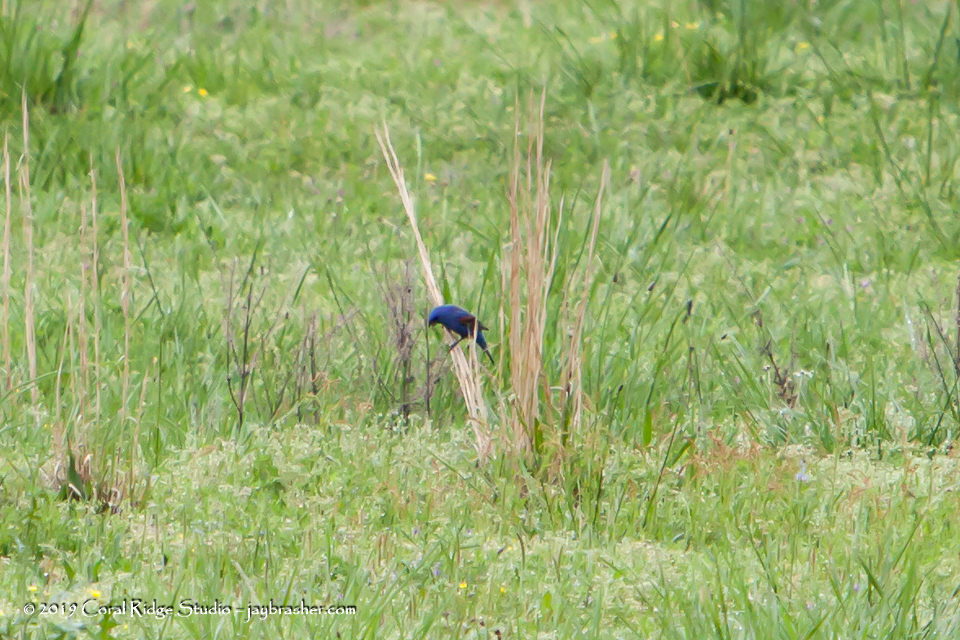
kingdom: Animalia
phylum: Chordata
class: Aves
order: Passeriformes
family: Cardinalidae
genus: Passerina
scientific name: Passerina caerulea
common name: Blue grosbeak
